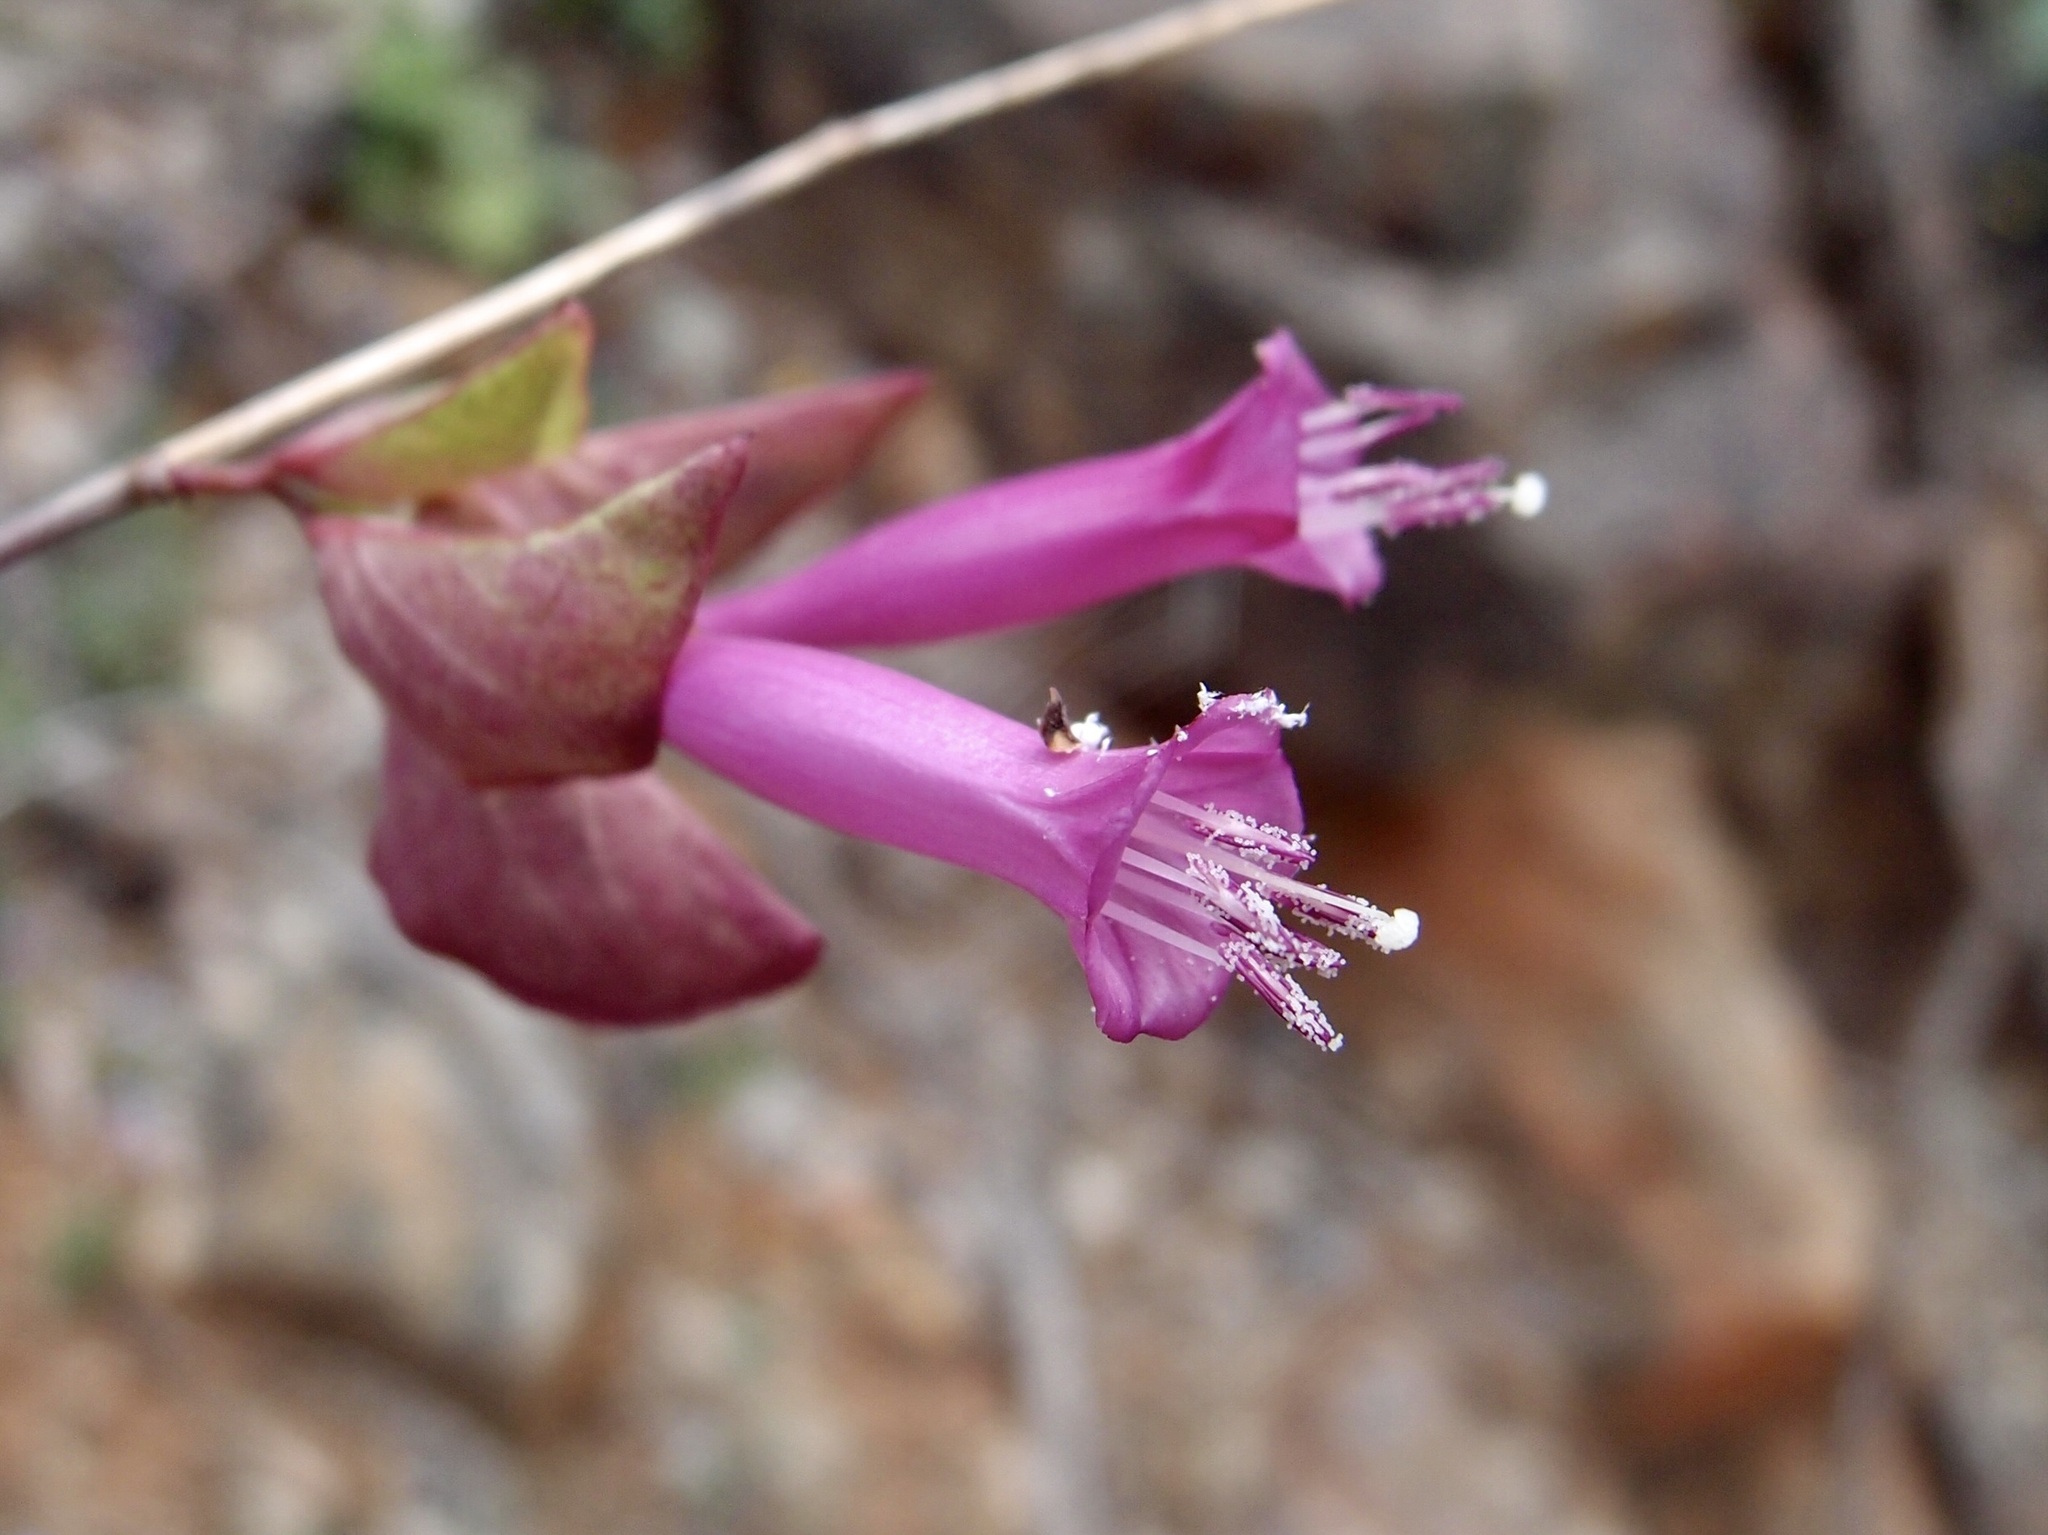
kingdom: Plantae
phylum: Tracheophyta
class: Magnoliopsida
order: Solanales
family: Convolvulaceae
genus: Ipomoea
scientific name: Ipomoea bracteata
